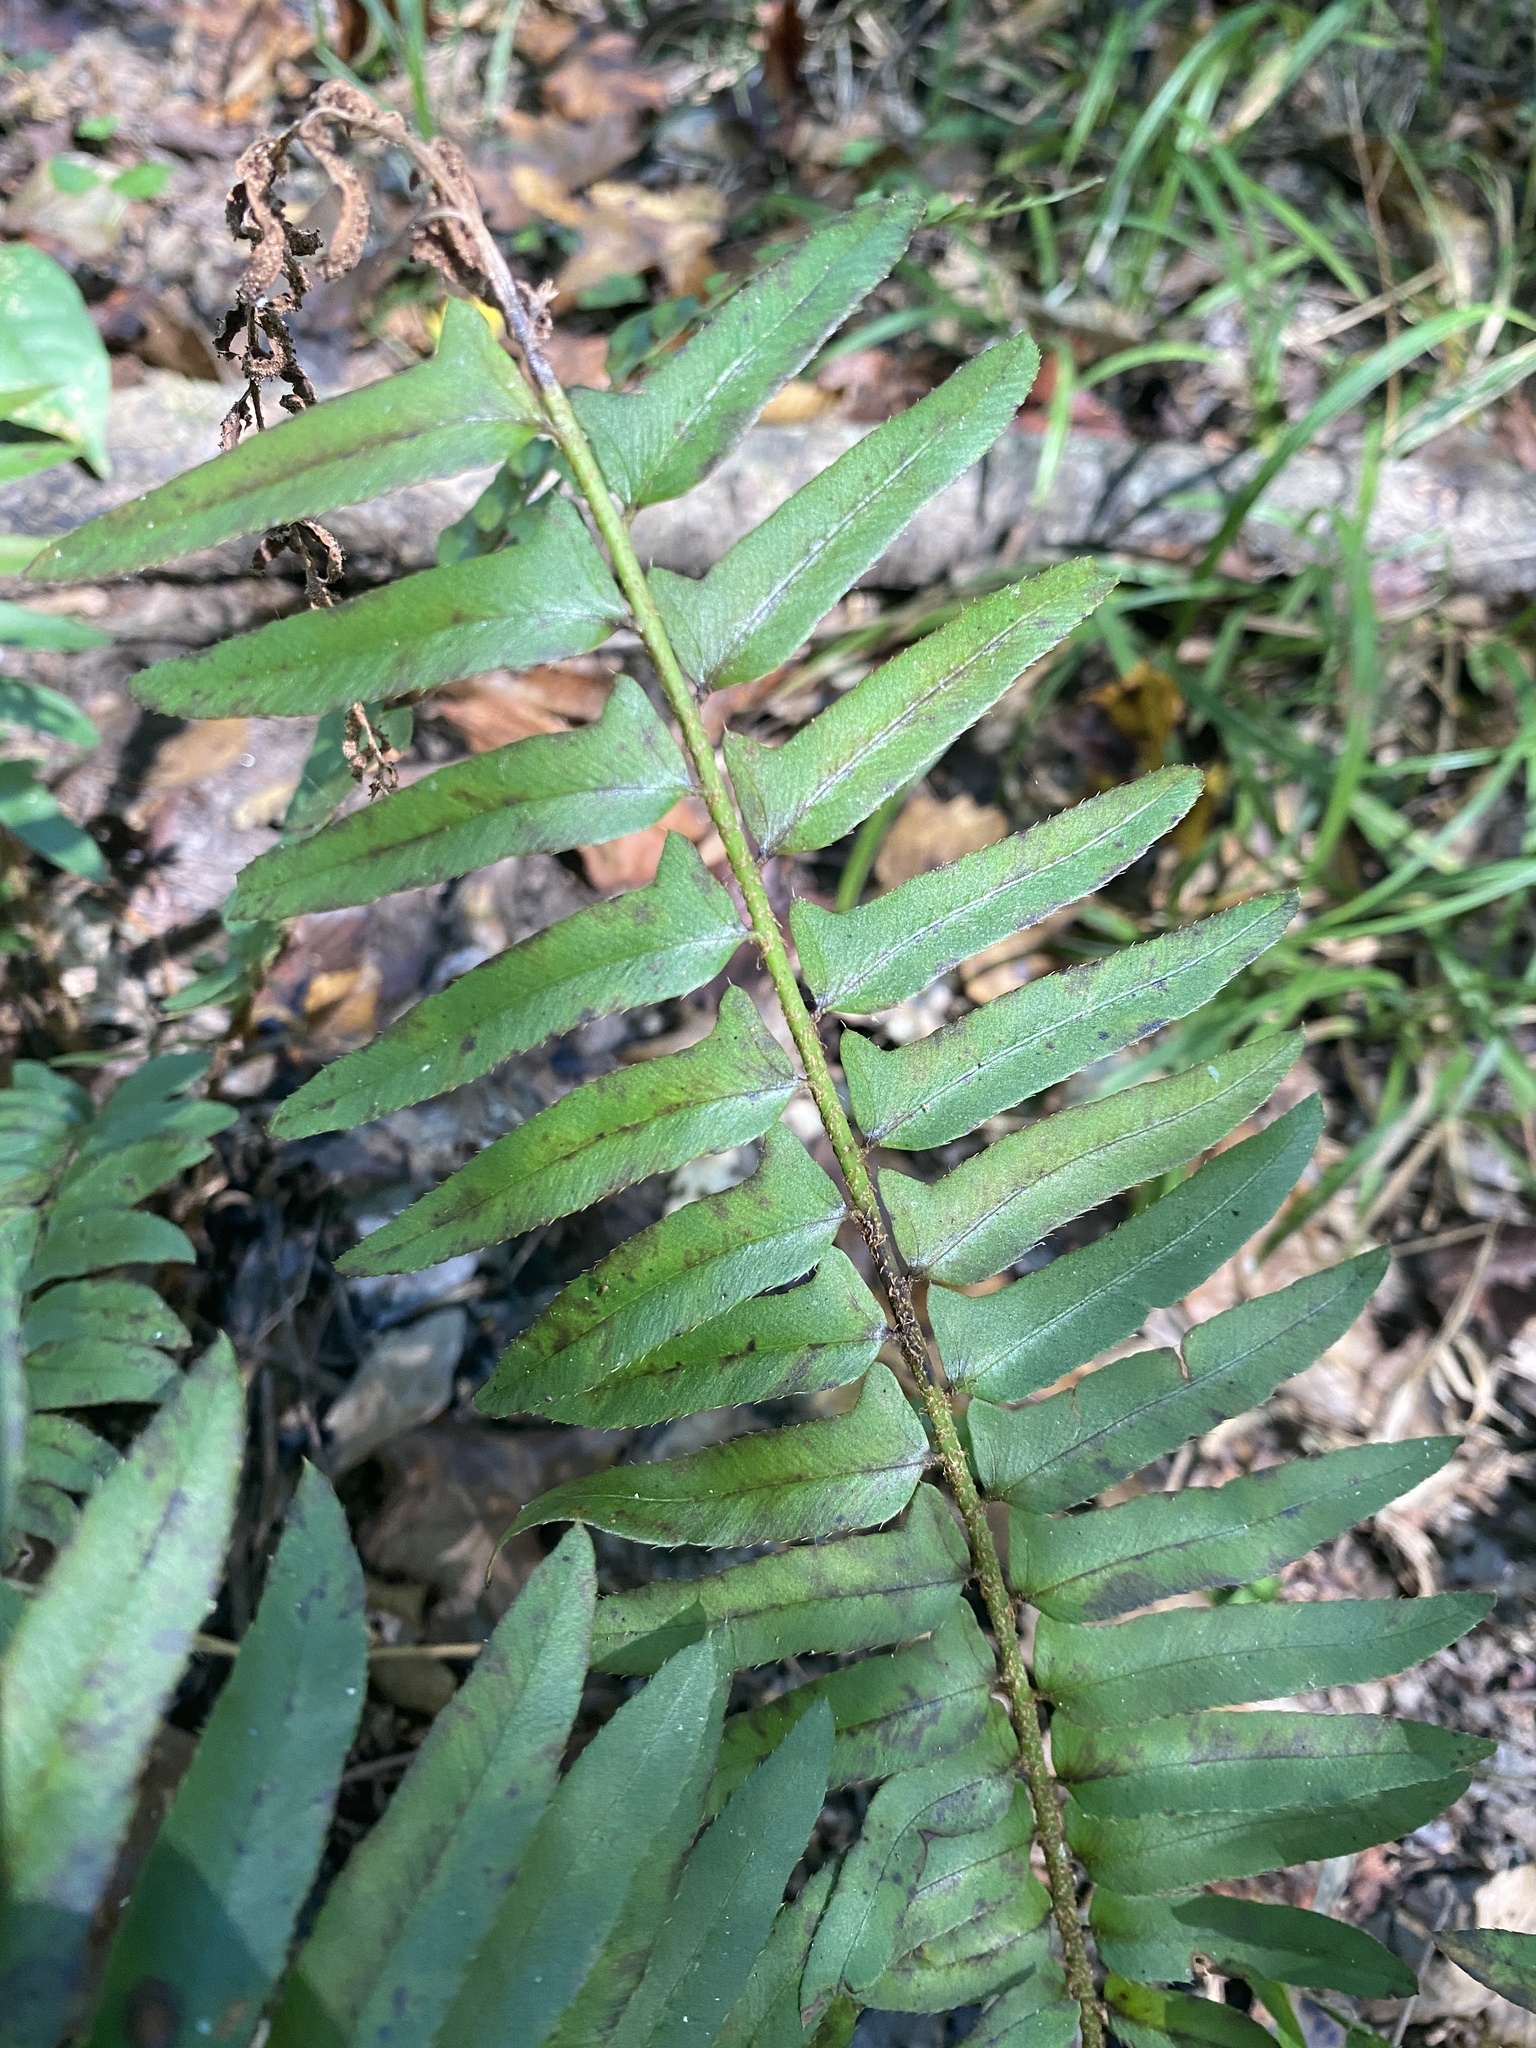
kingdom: Plantae
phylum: Tracheophyta
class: Polypodiopsida
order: Polypodiales
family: Dryopteridaceae
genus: Polystichum
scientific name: Polystichum acrostichoides
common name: Christmas fern
